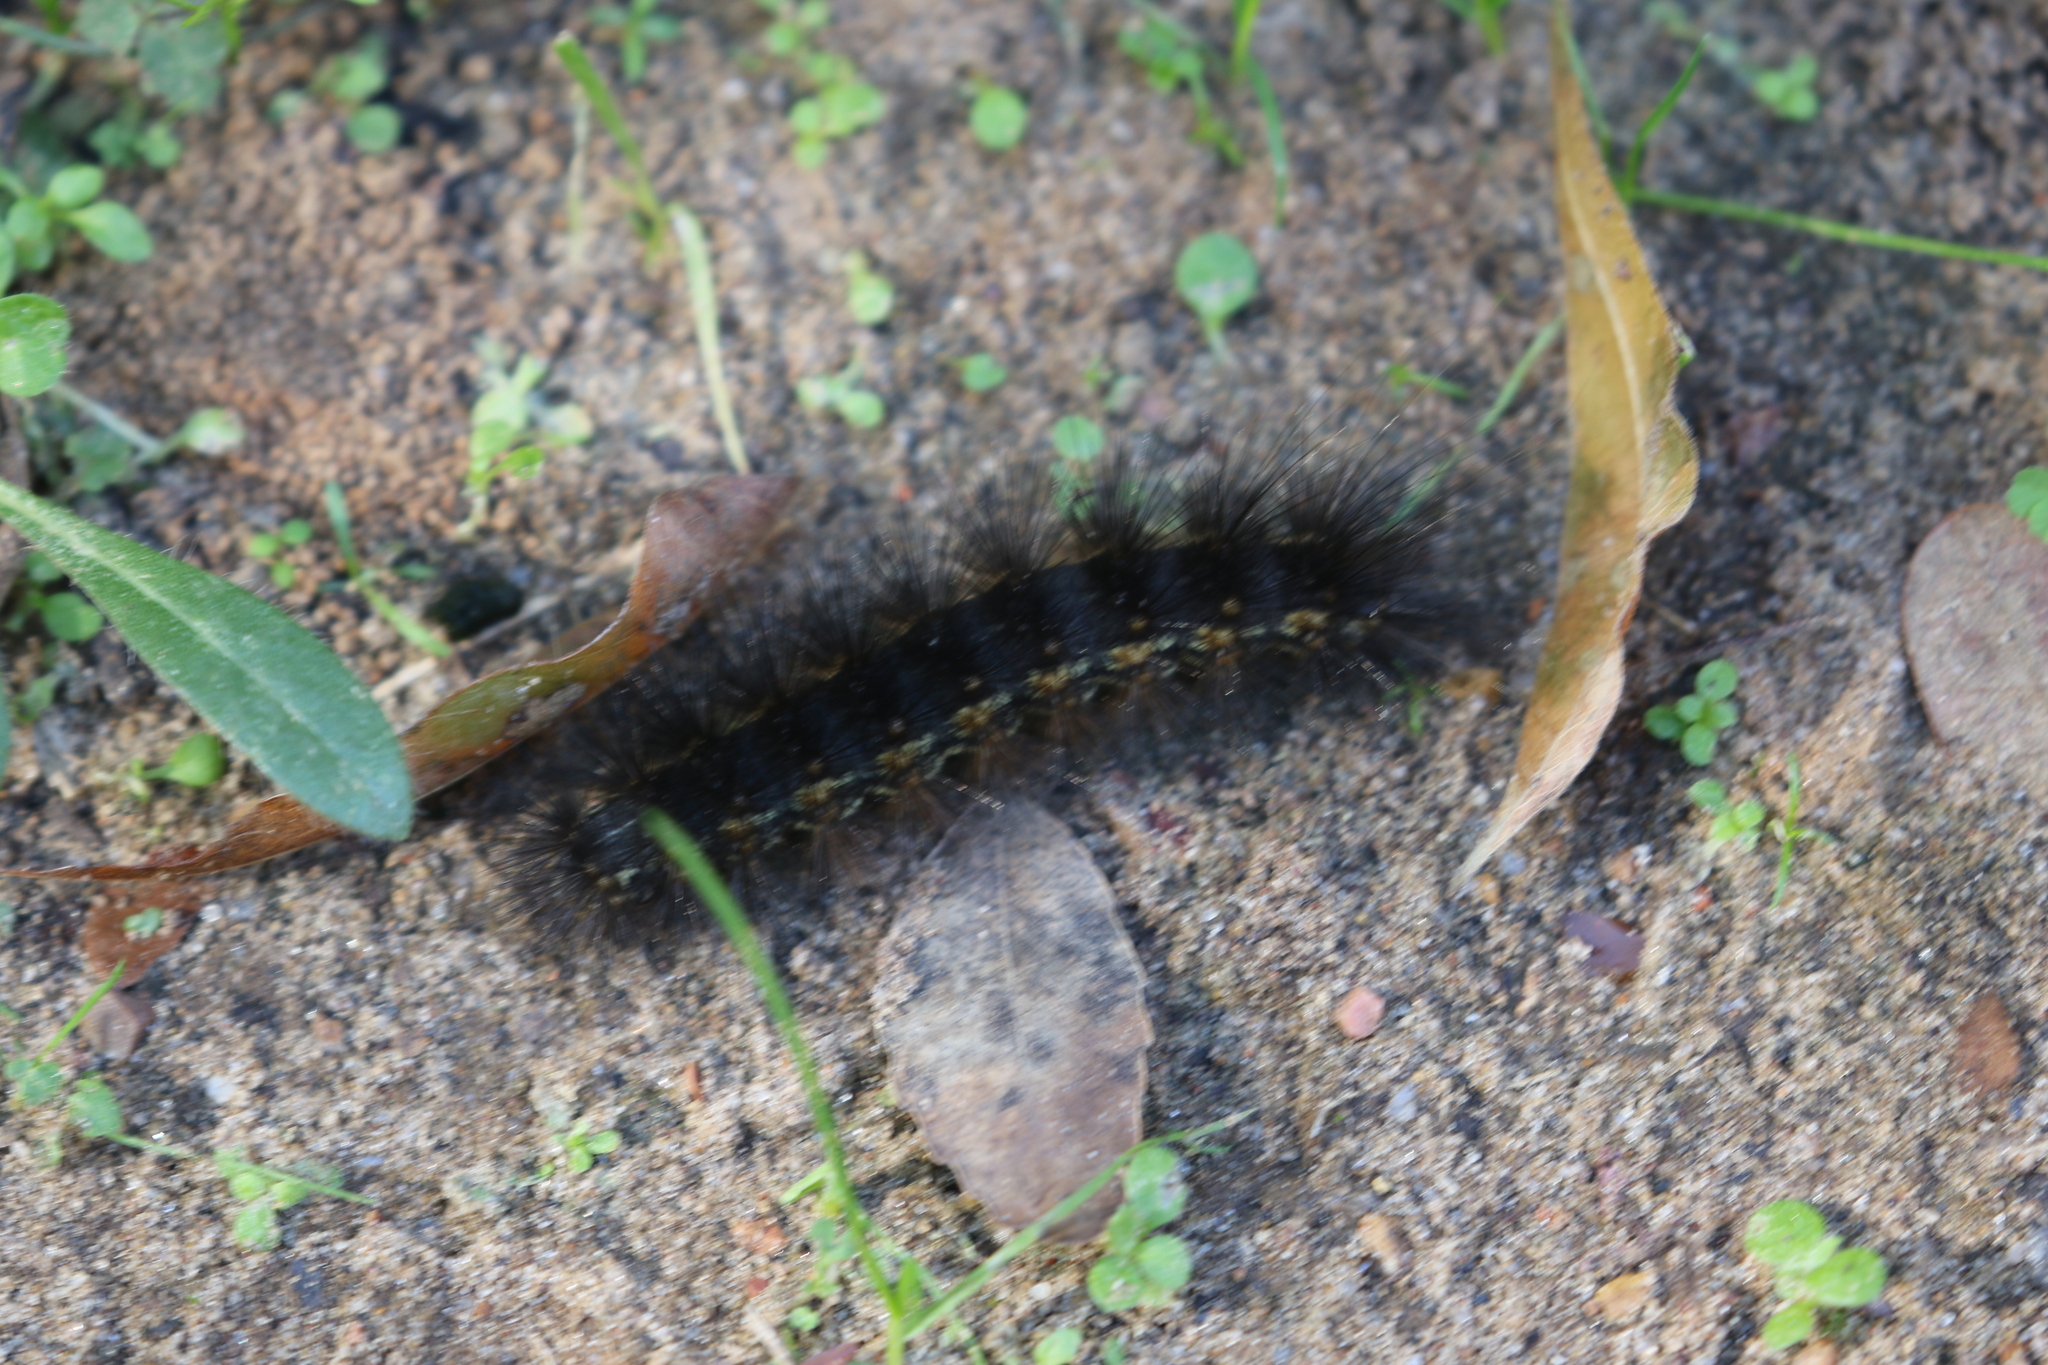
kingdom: Animalia
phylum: Arthropoda
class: Insecta
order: Lepidoptera
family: Erebidae
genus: Estigmene
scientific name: Estigmene acrea
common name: Salt marsh moth
